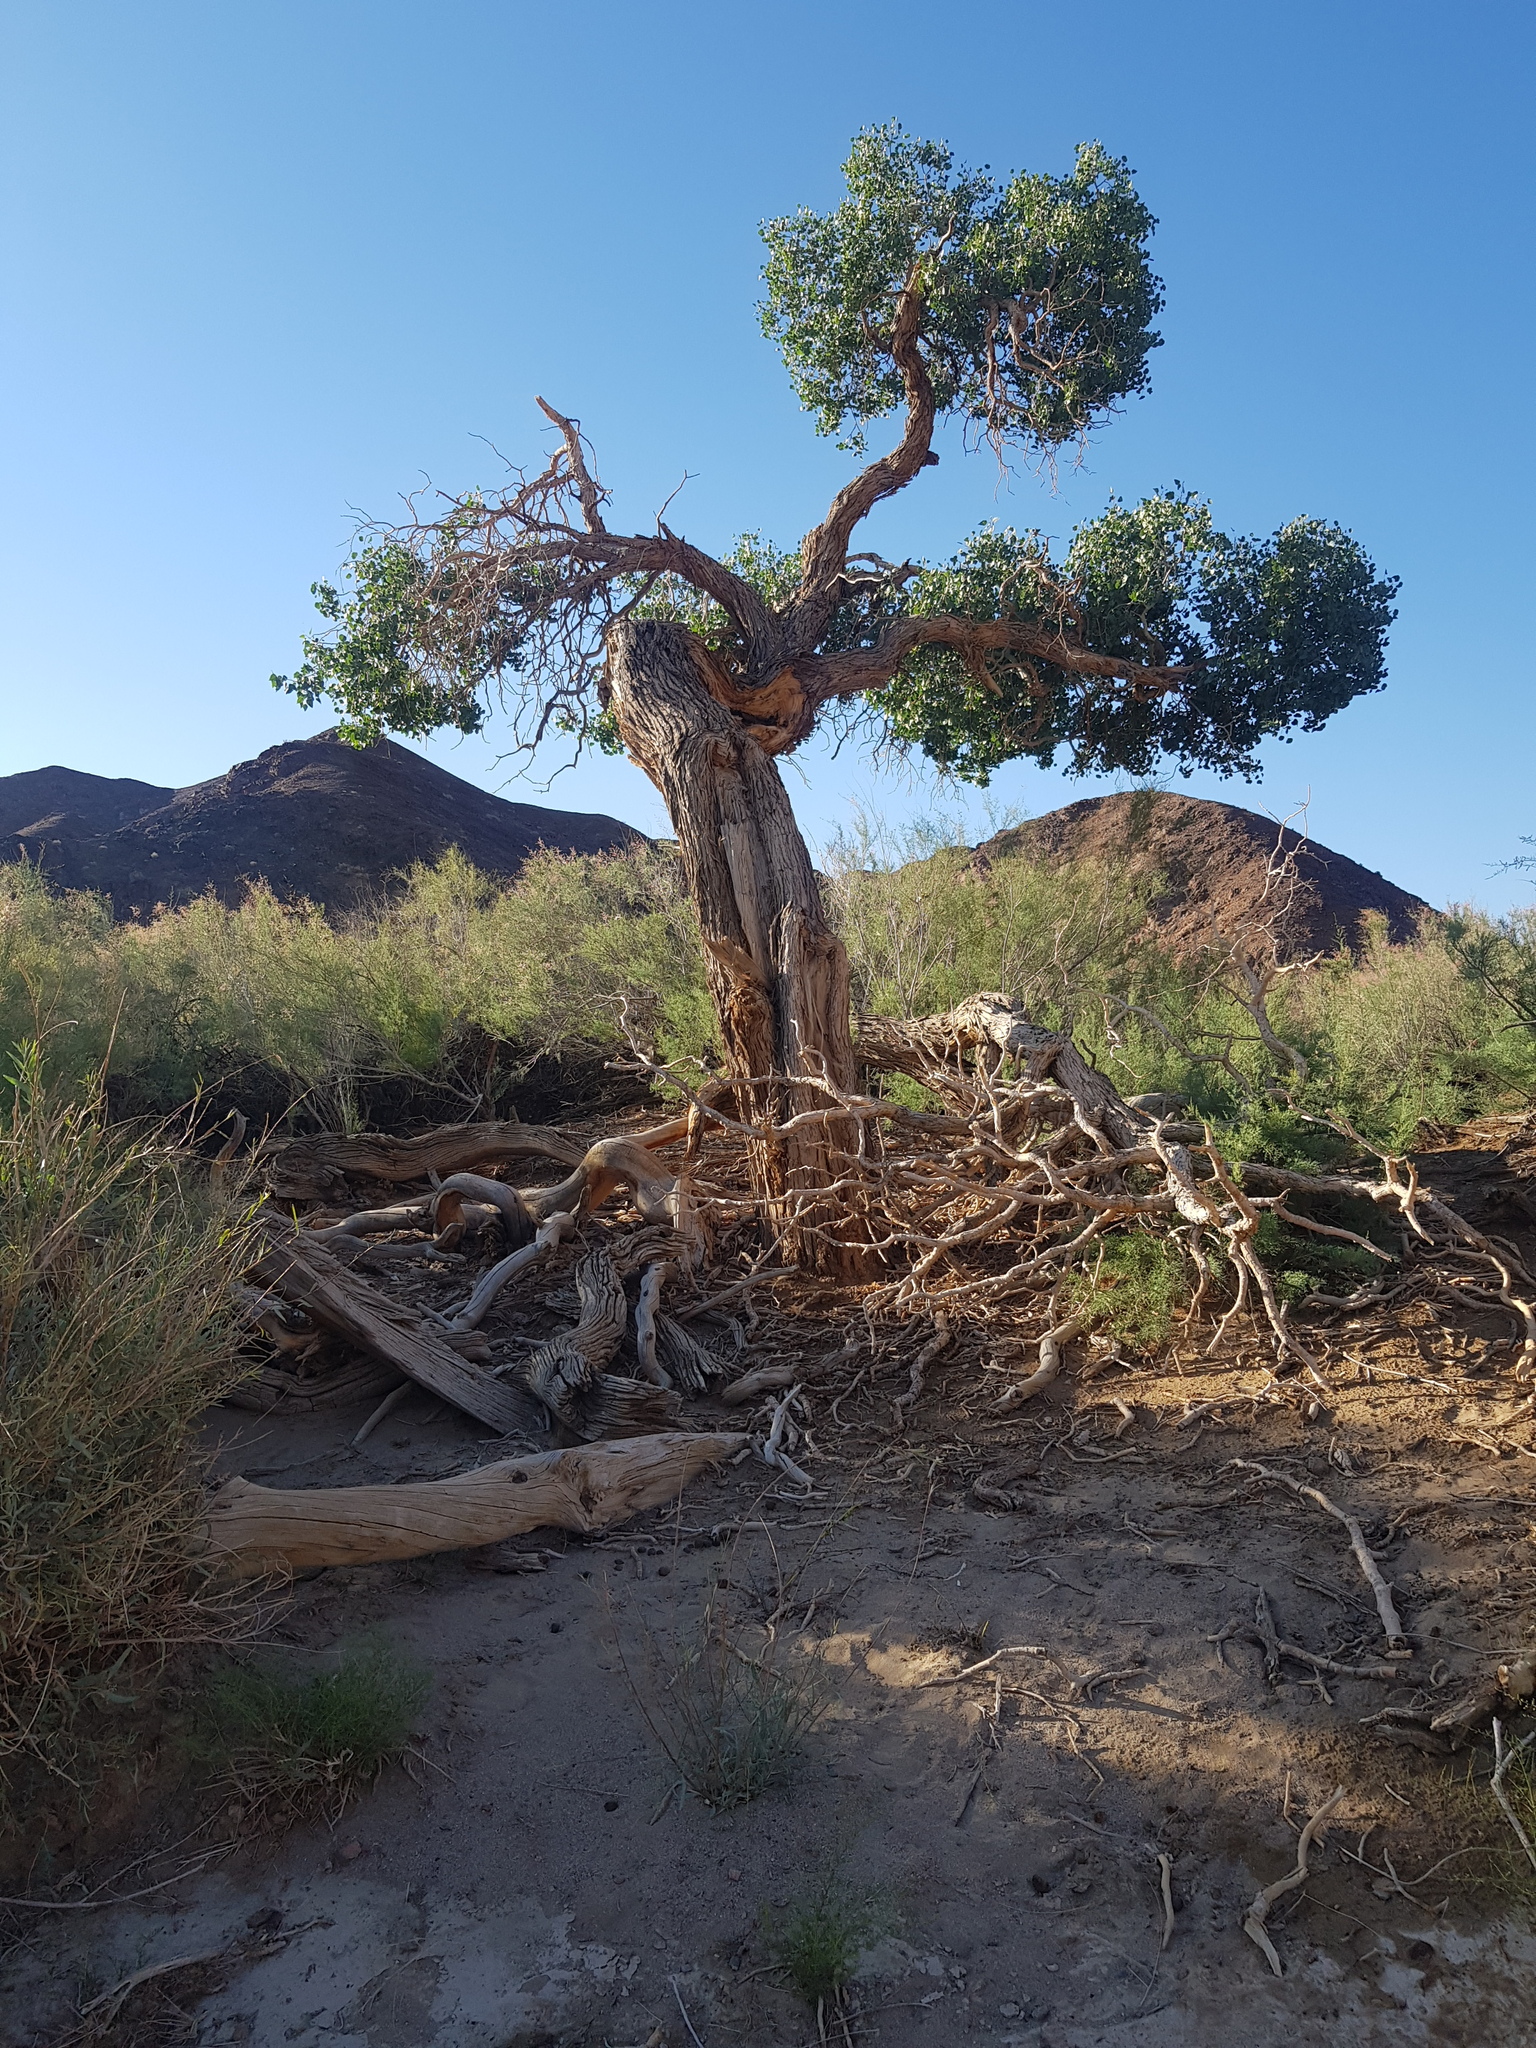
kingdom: Plantae
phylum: Tracheophyta
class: Magnoliopsida
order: Malpighiales
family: Salicaceae
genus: Populus
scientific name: Populus euphratica
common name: Euphrates poplar
